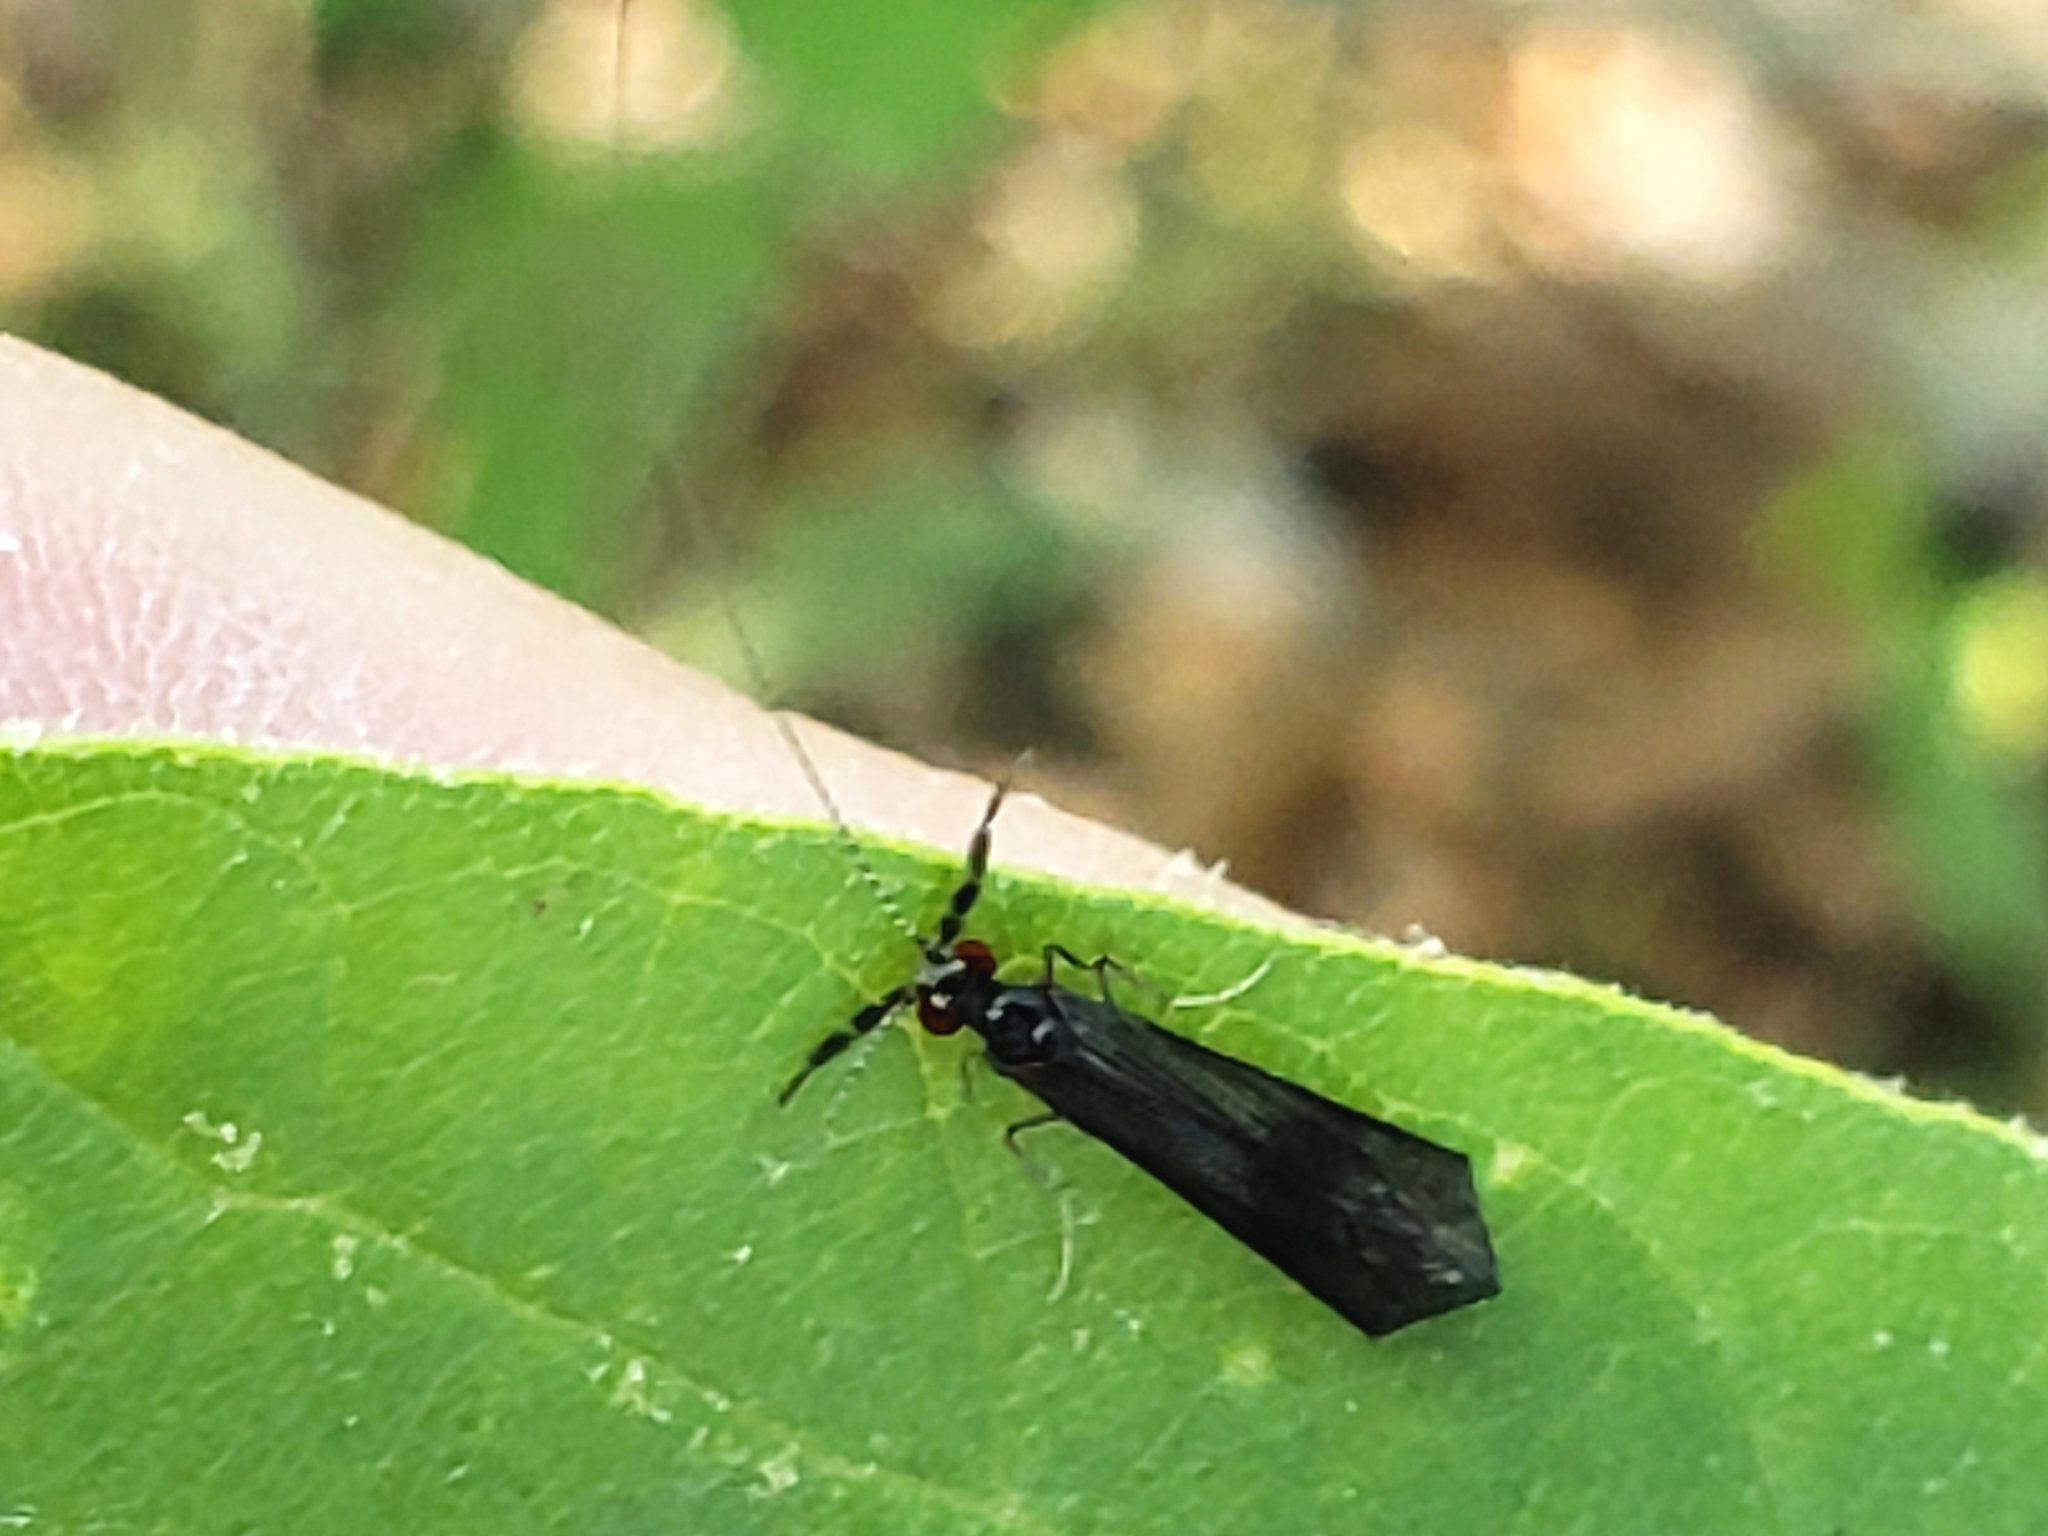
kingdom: Animalia
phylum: Arthropoda
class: Insecta
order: Trichoptera
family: Leptoceridae
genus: Mystacides
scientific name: Mystacides sepulchralis
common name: Black dancer caddisfly
